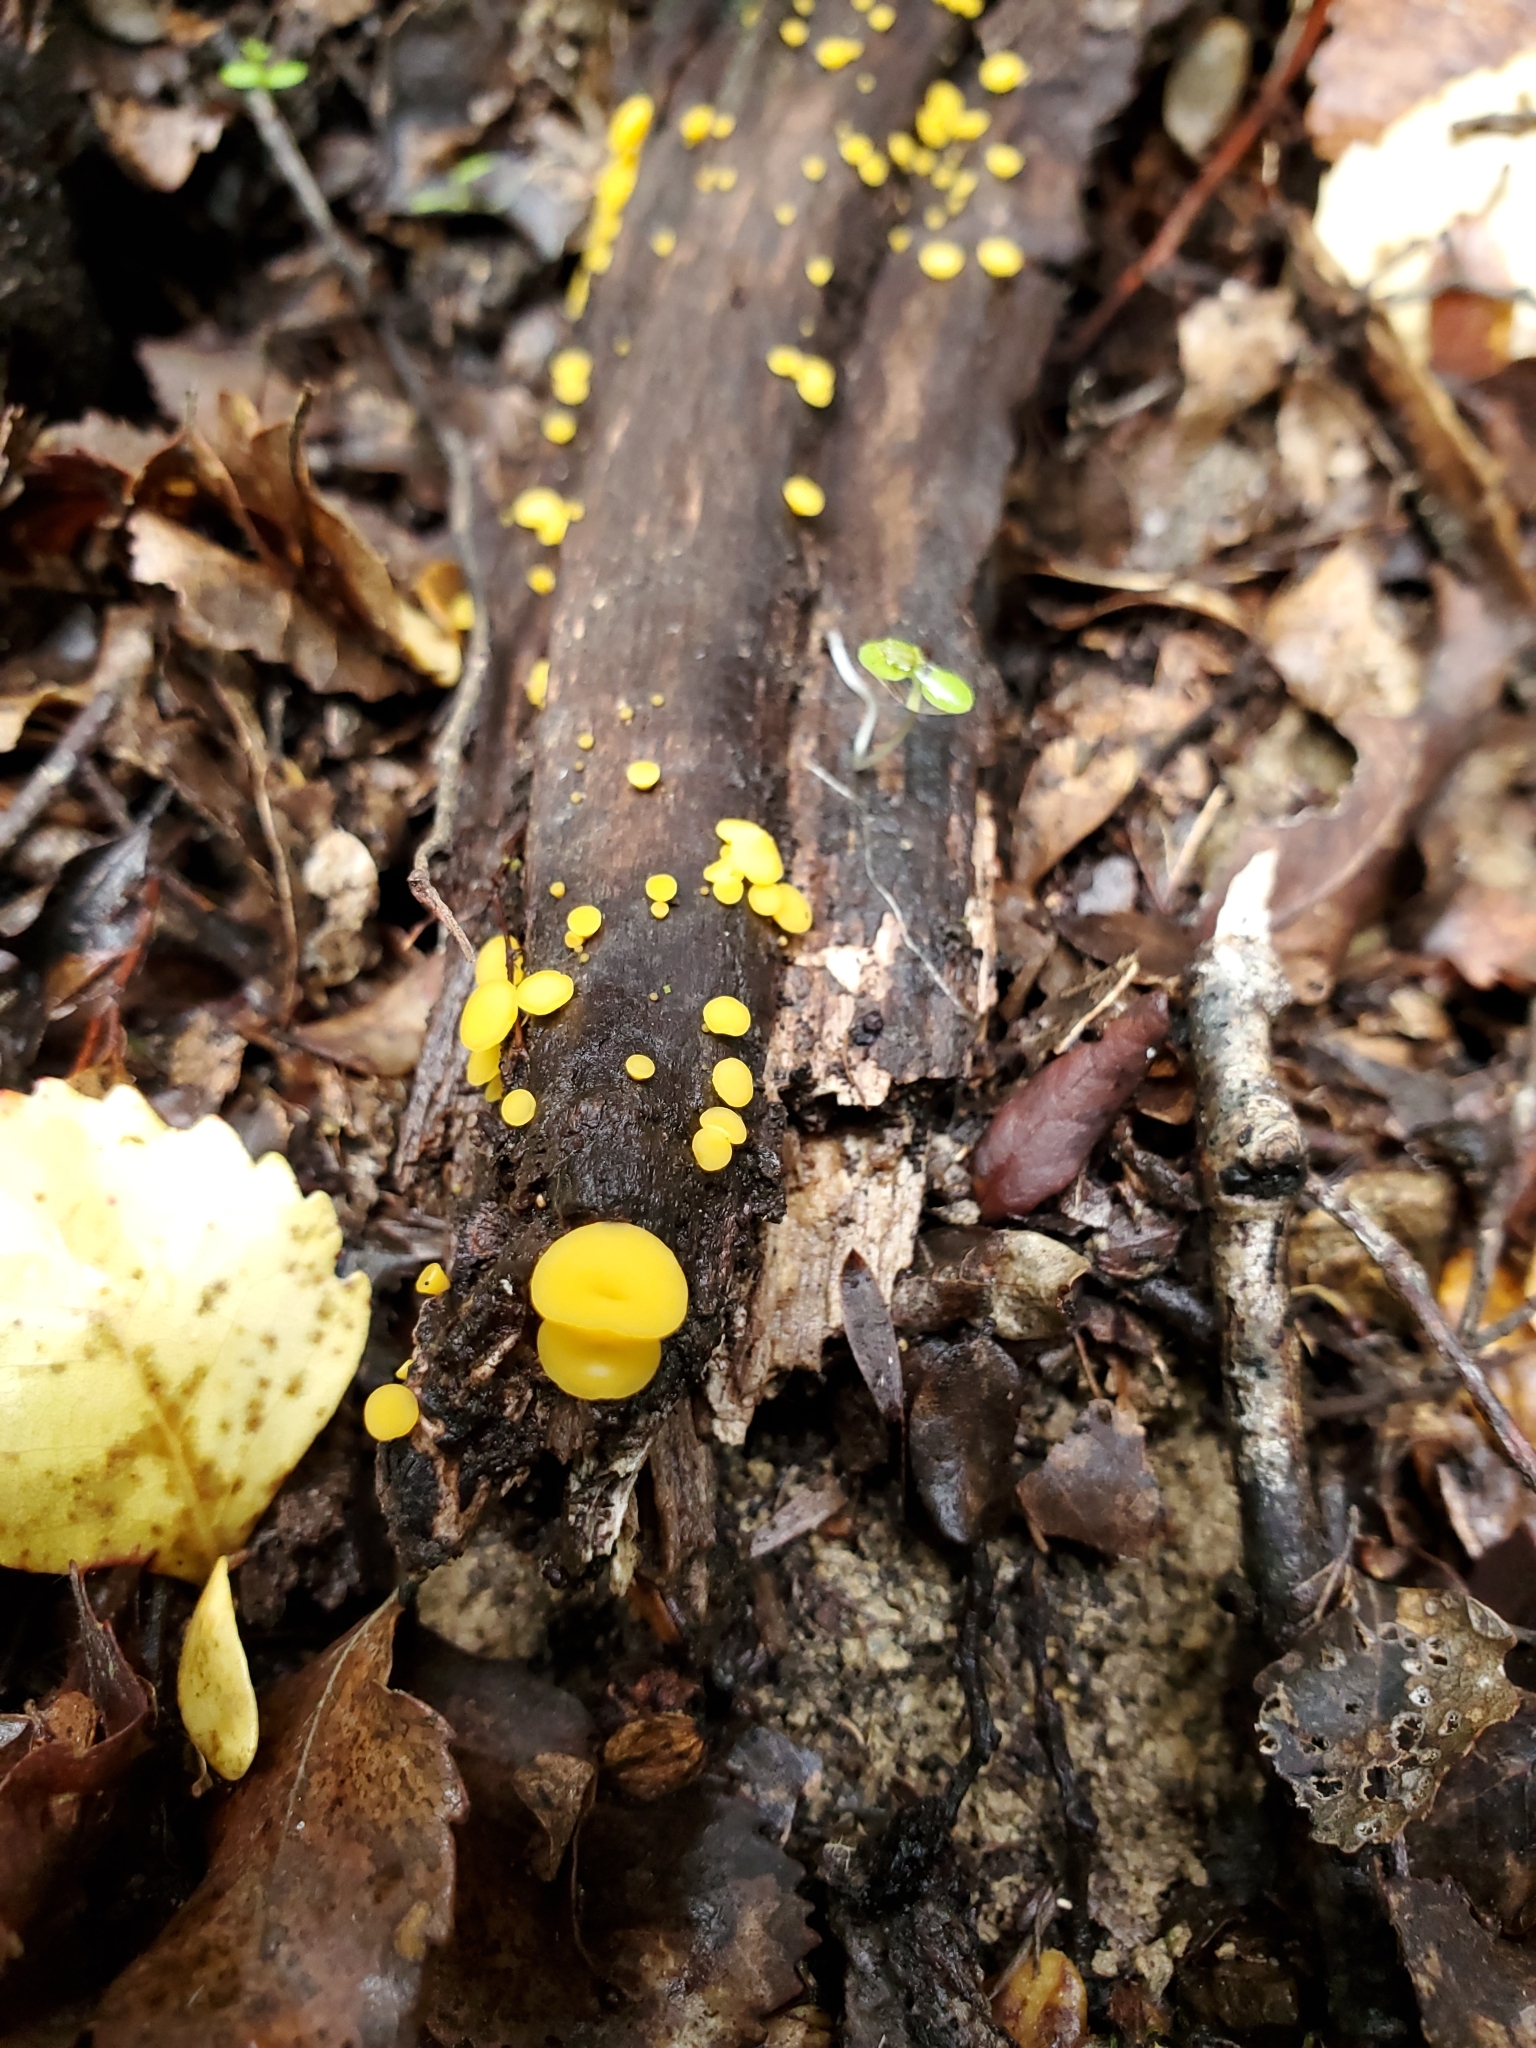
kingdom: Fungi
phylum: Ascomycota
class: Leotiomycetes
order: Helotiales
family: Pezizellaceae
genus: Calycina
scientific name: Calycina citrina
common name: Yellow fairy cups
